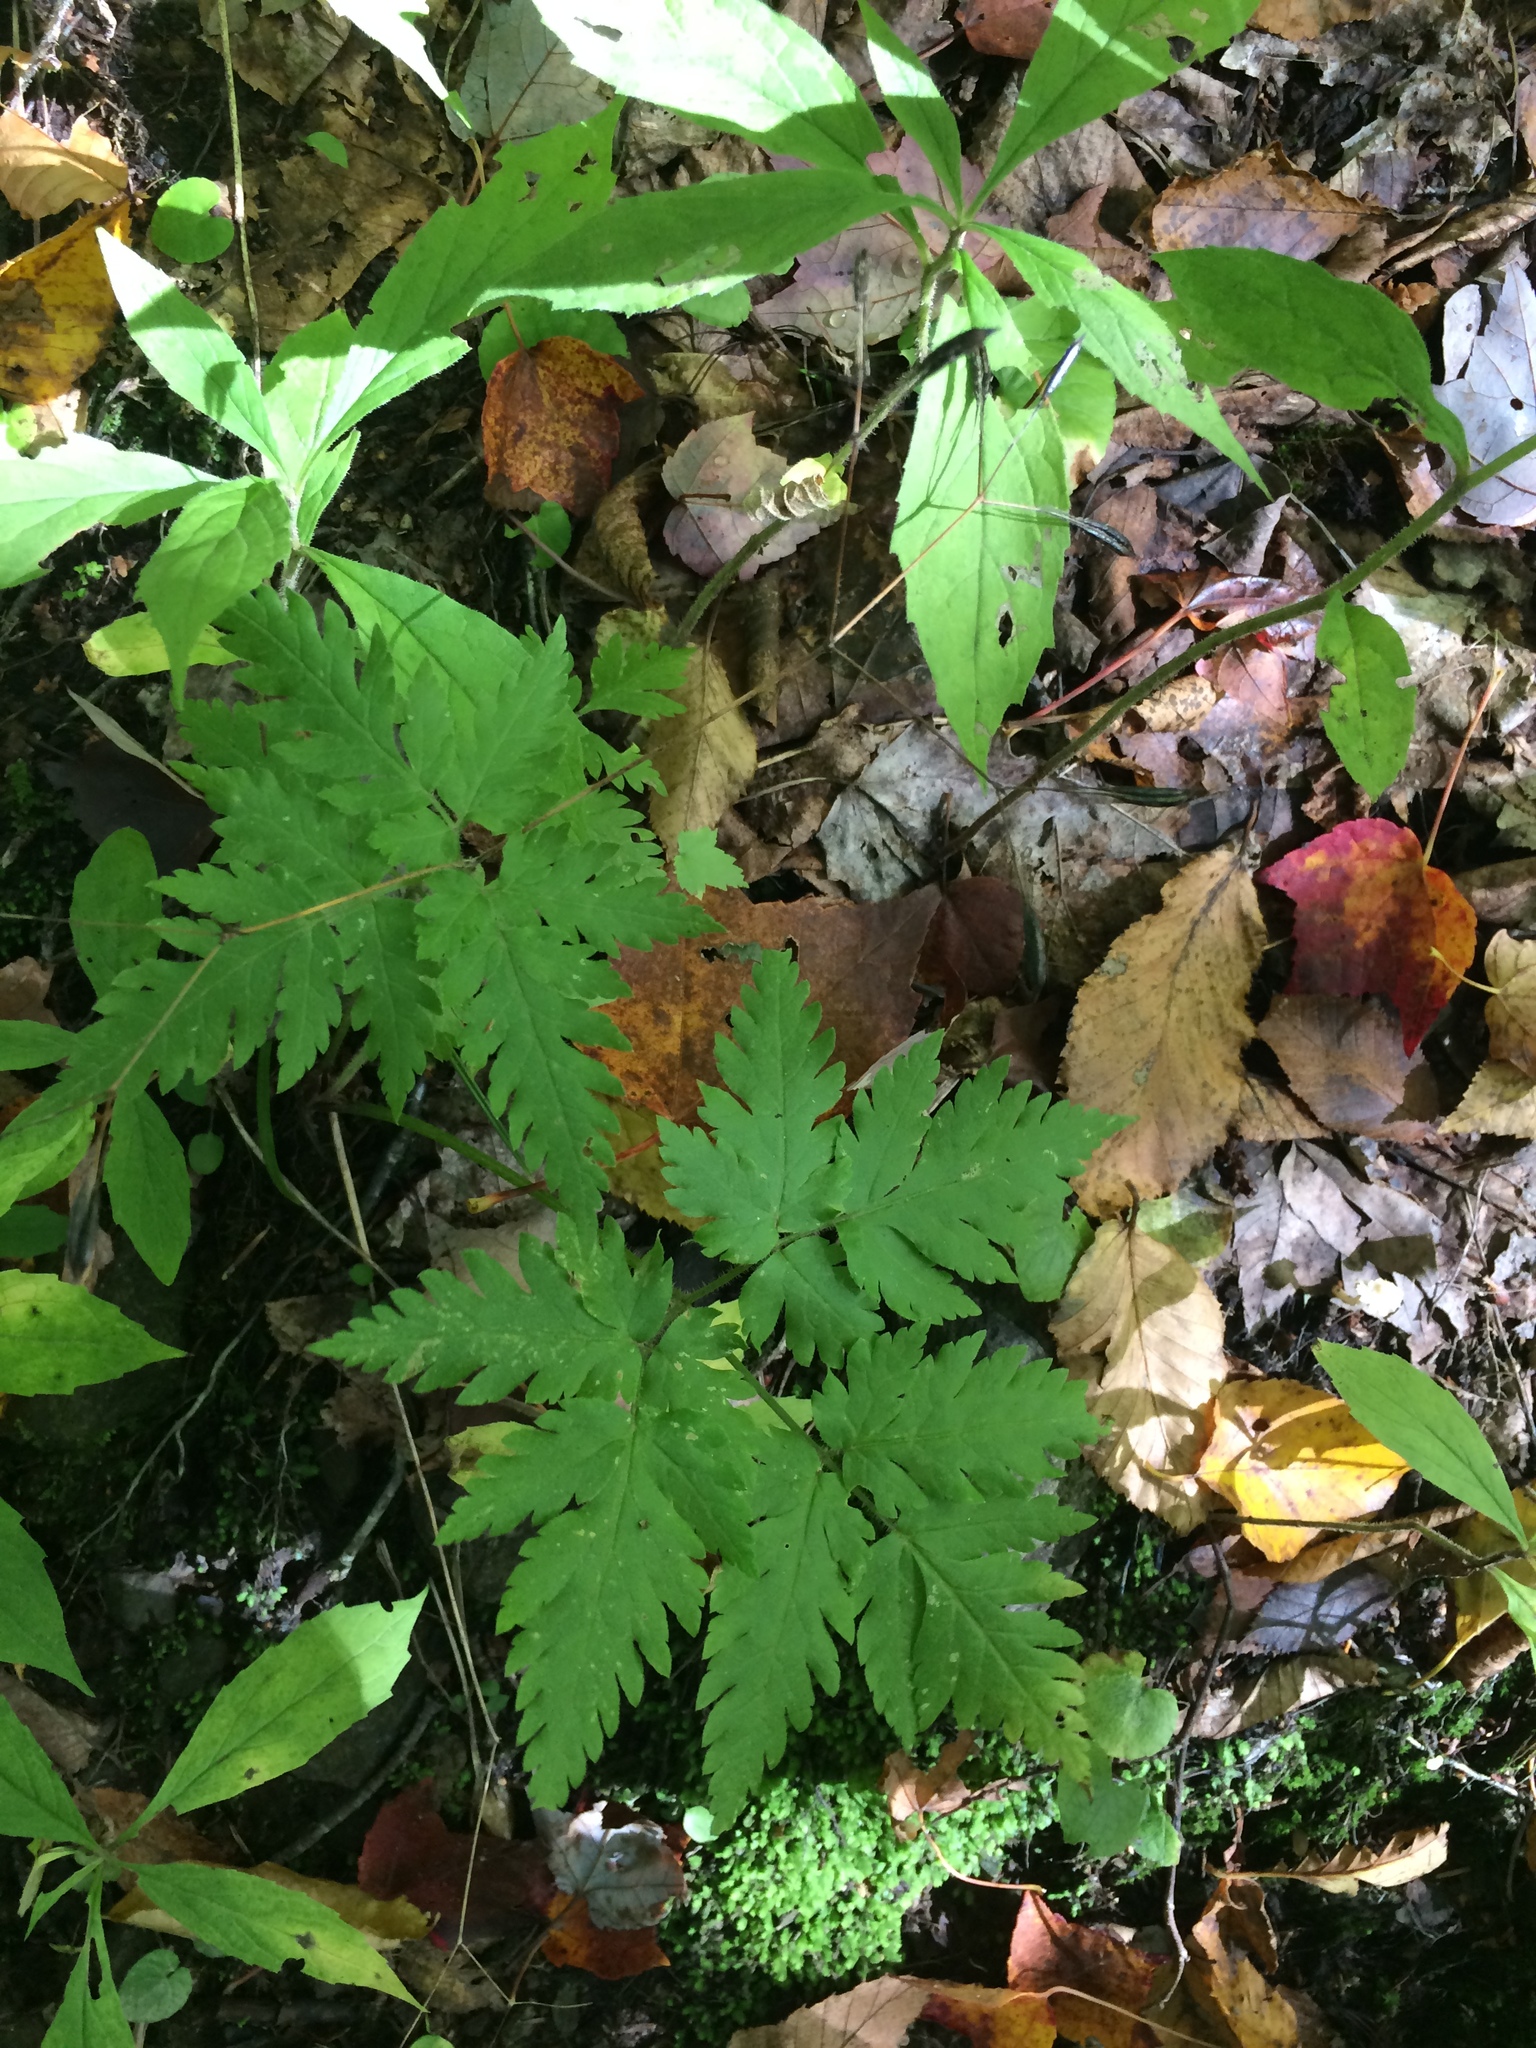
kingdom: Plantae
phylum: Tracheophyta
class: Magnoliopsida
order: Apiales
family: Apiaceae
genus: Osmorhiza
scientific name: Osmorhiza claytonii
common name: Hairy sweet cicely
